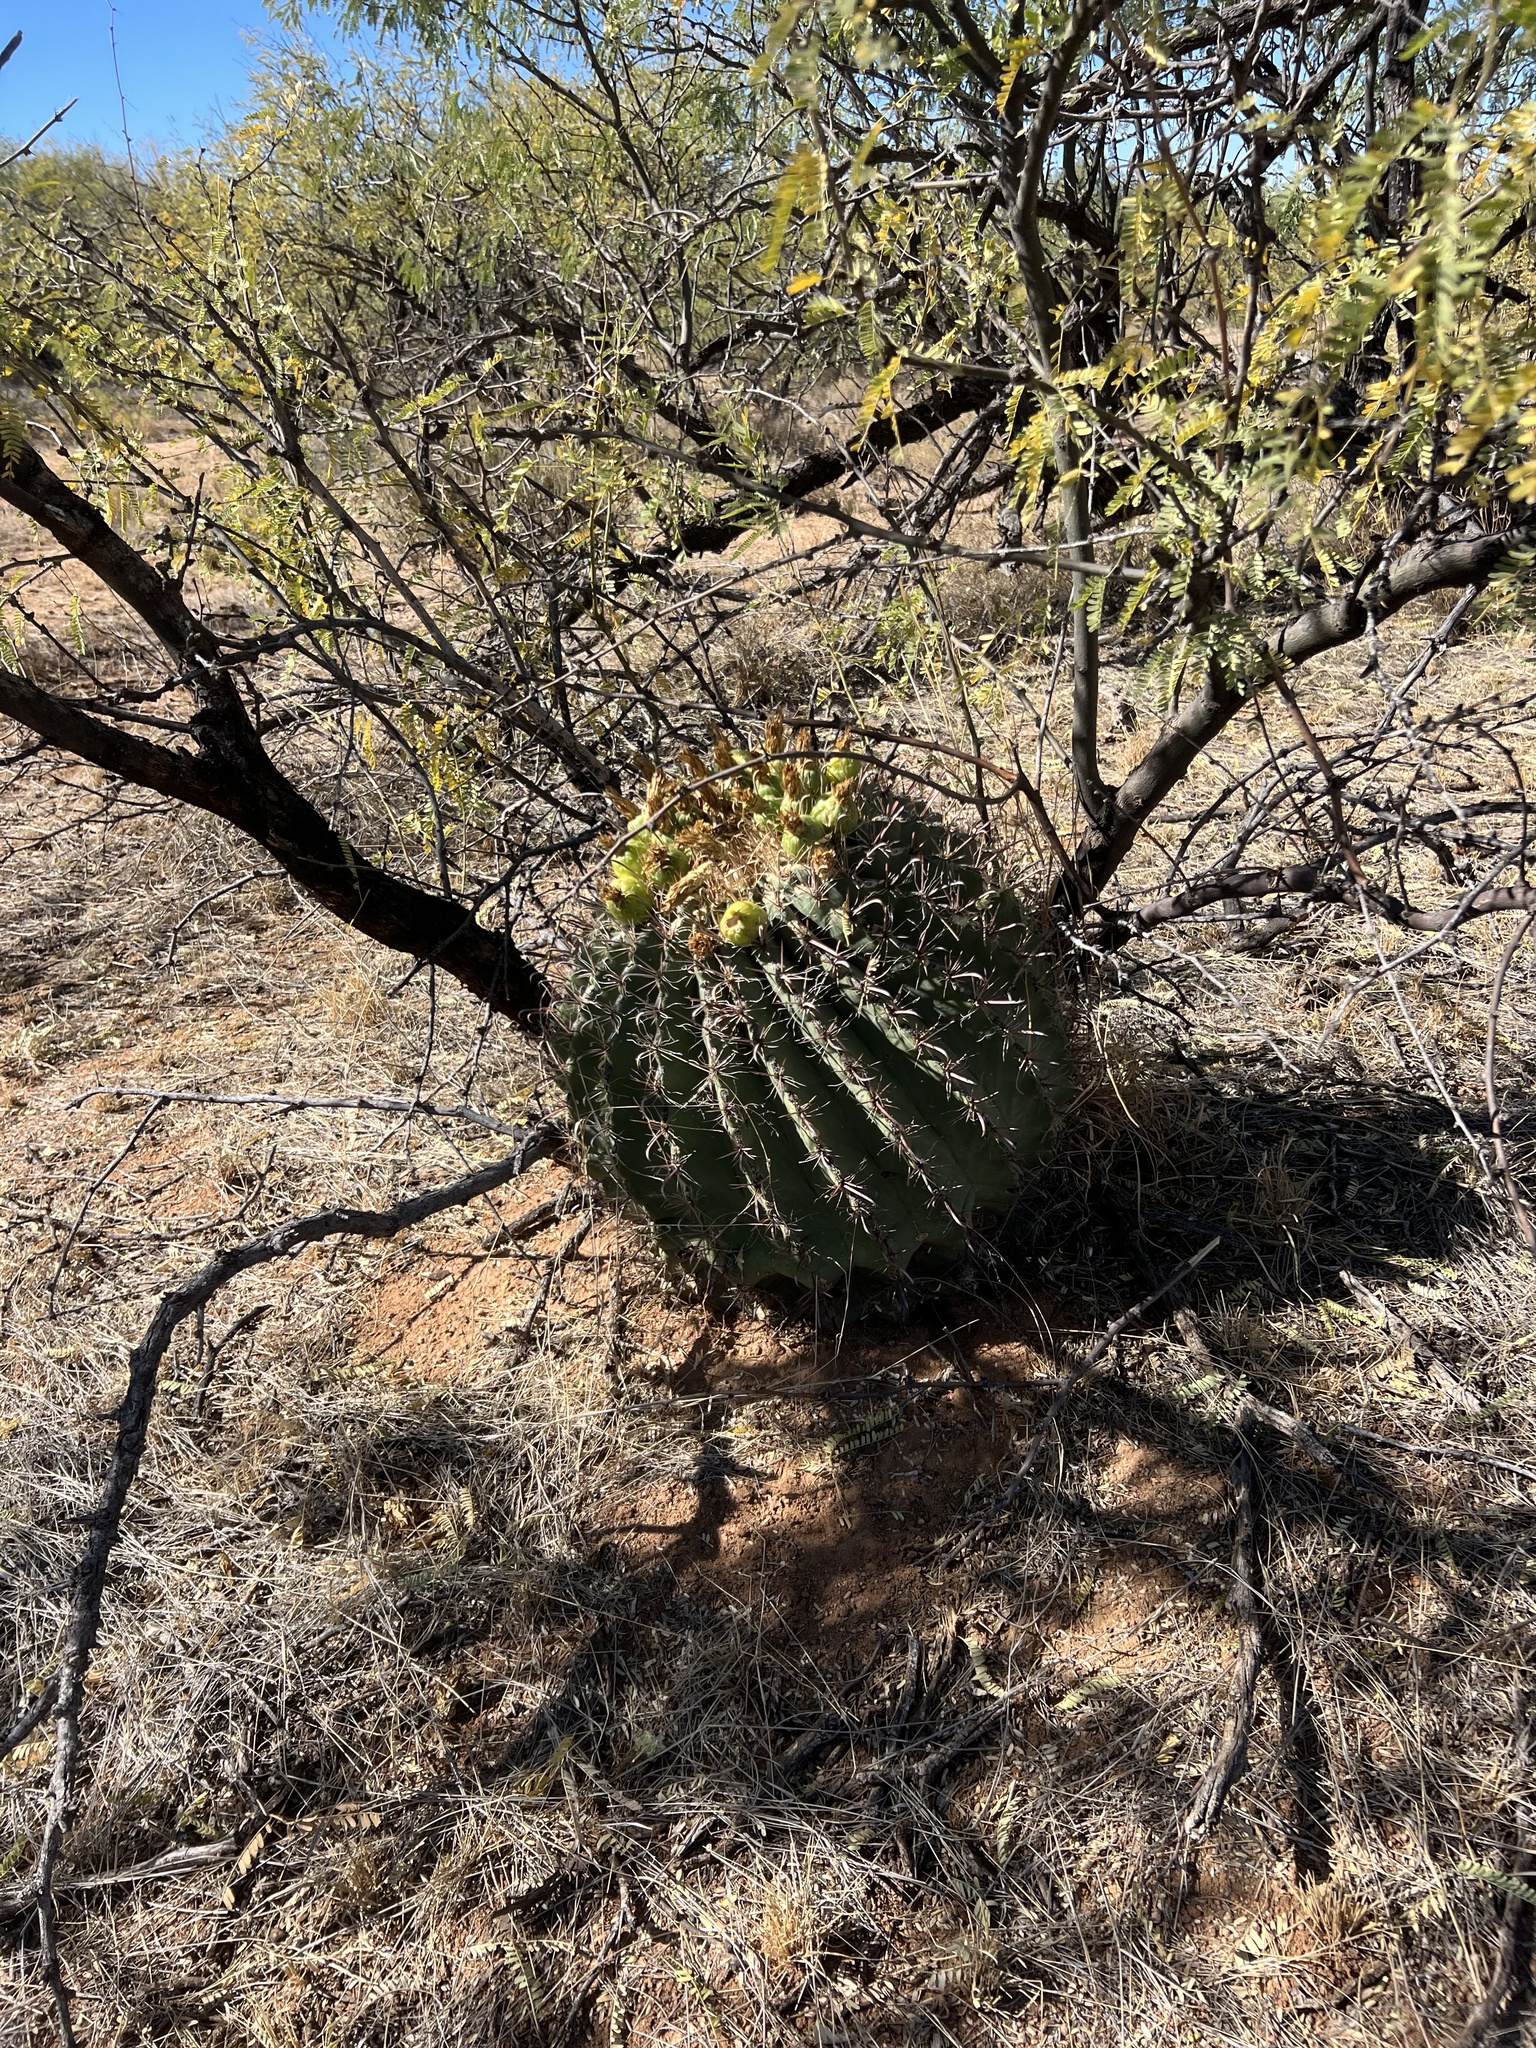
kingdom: Plantae
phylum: Tracheophyta
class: Magnoliopsida
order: Caryophyllales
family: Cactaceae
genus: Ferocactus
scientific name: Ferocactus wislizeni
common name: Candy barrel cactus
